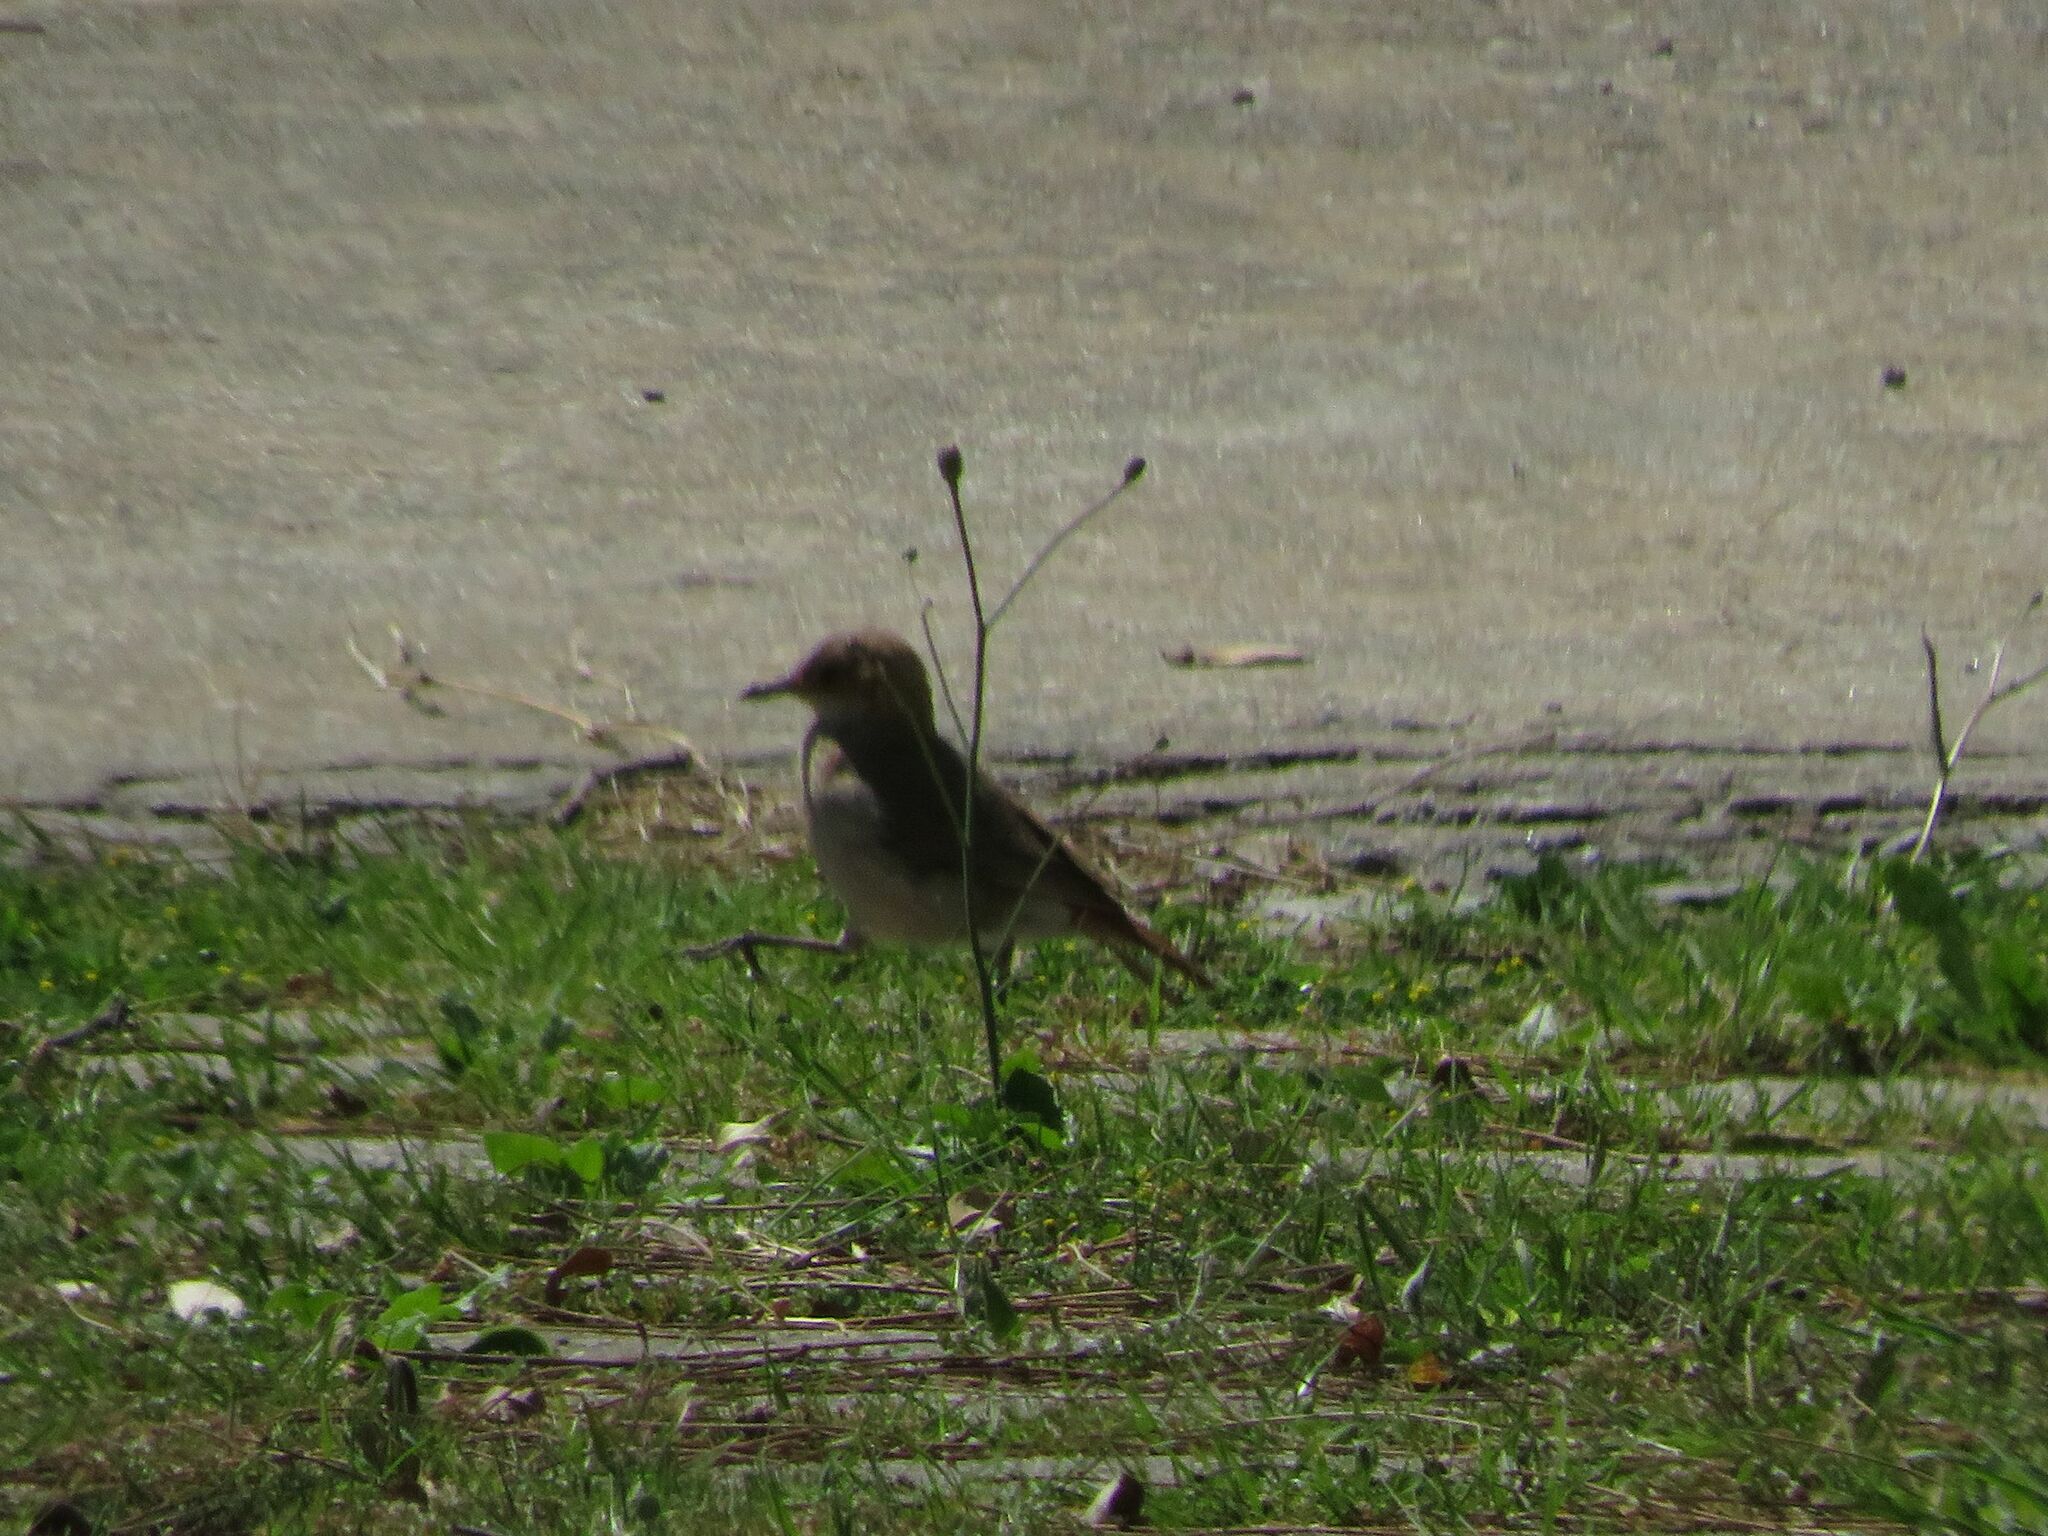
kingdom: Animalia
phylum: Chordata
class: Aves
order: Passeriformes
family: Furnariidae
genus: Furnarius
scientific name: Furnarius rufus
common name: Rufous hornero
